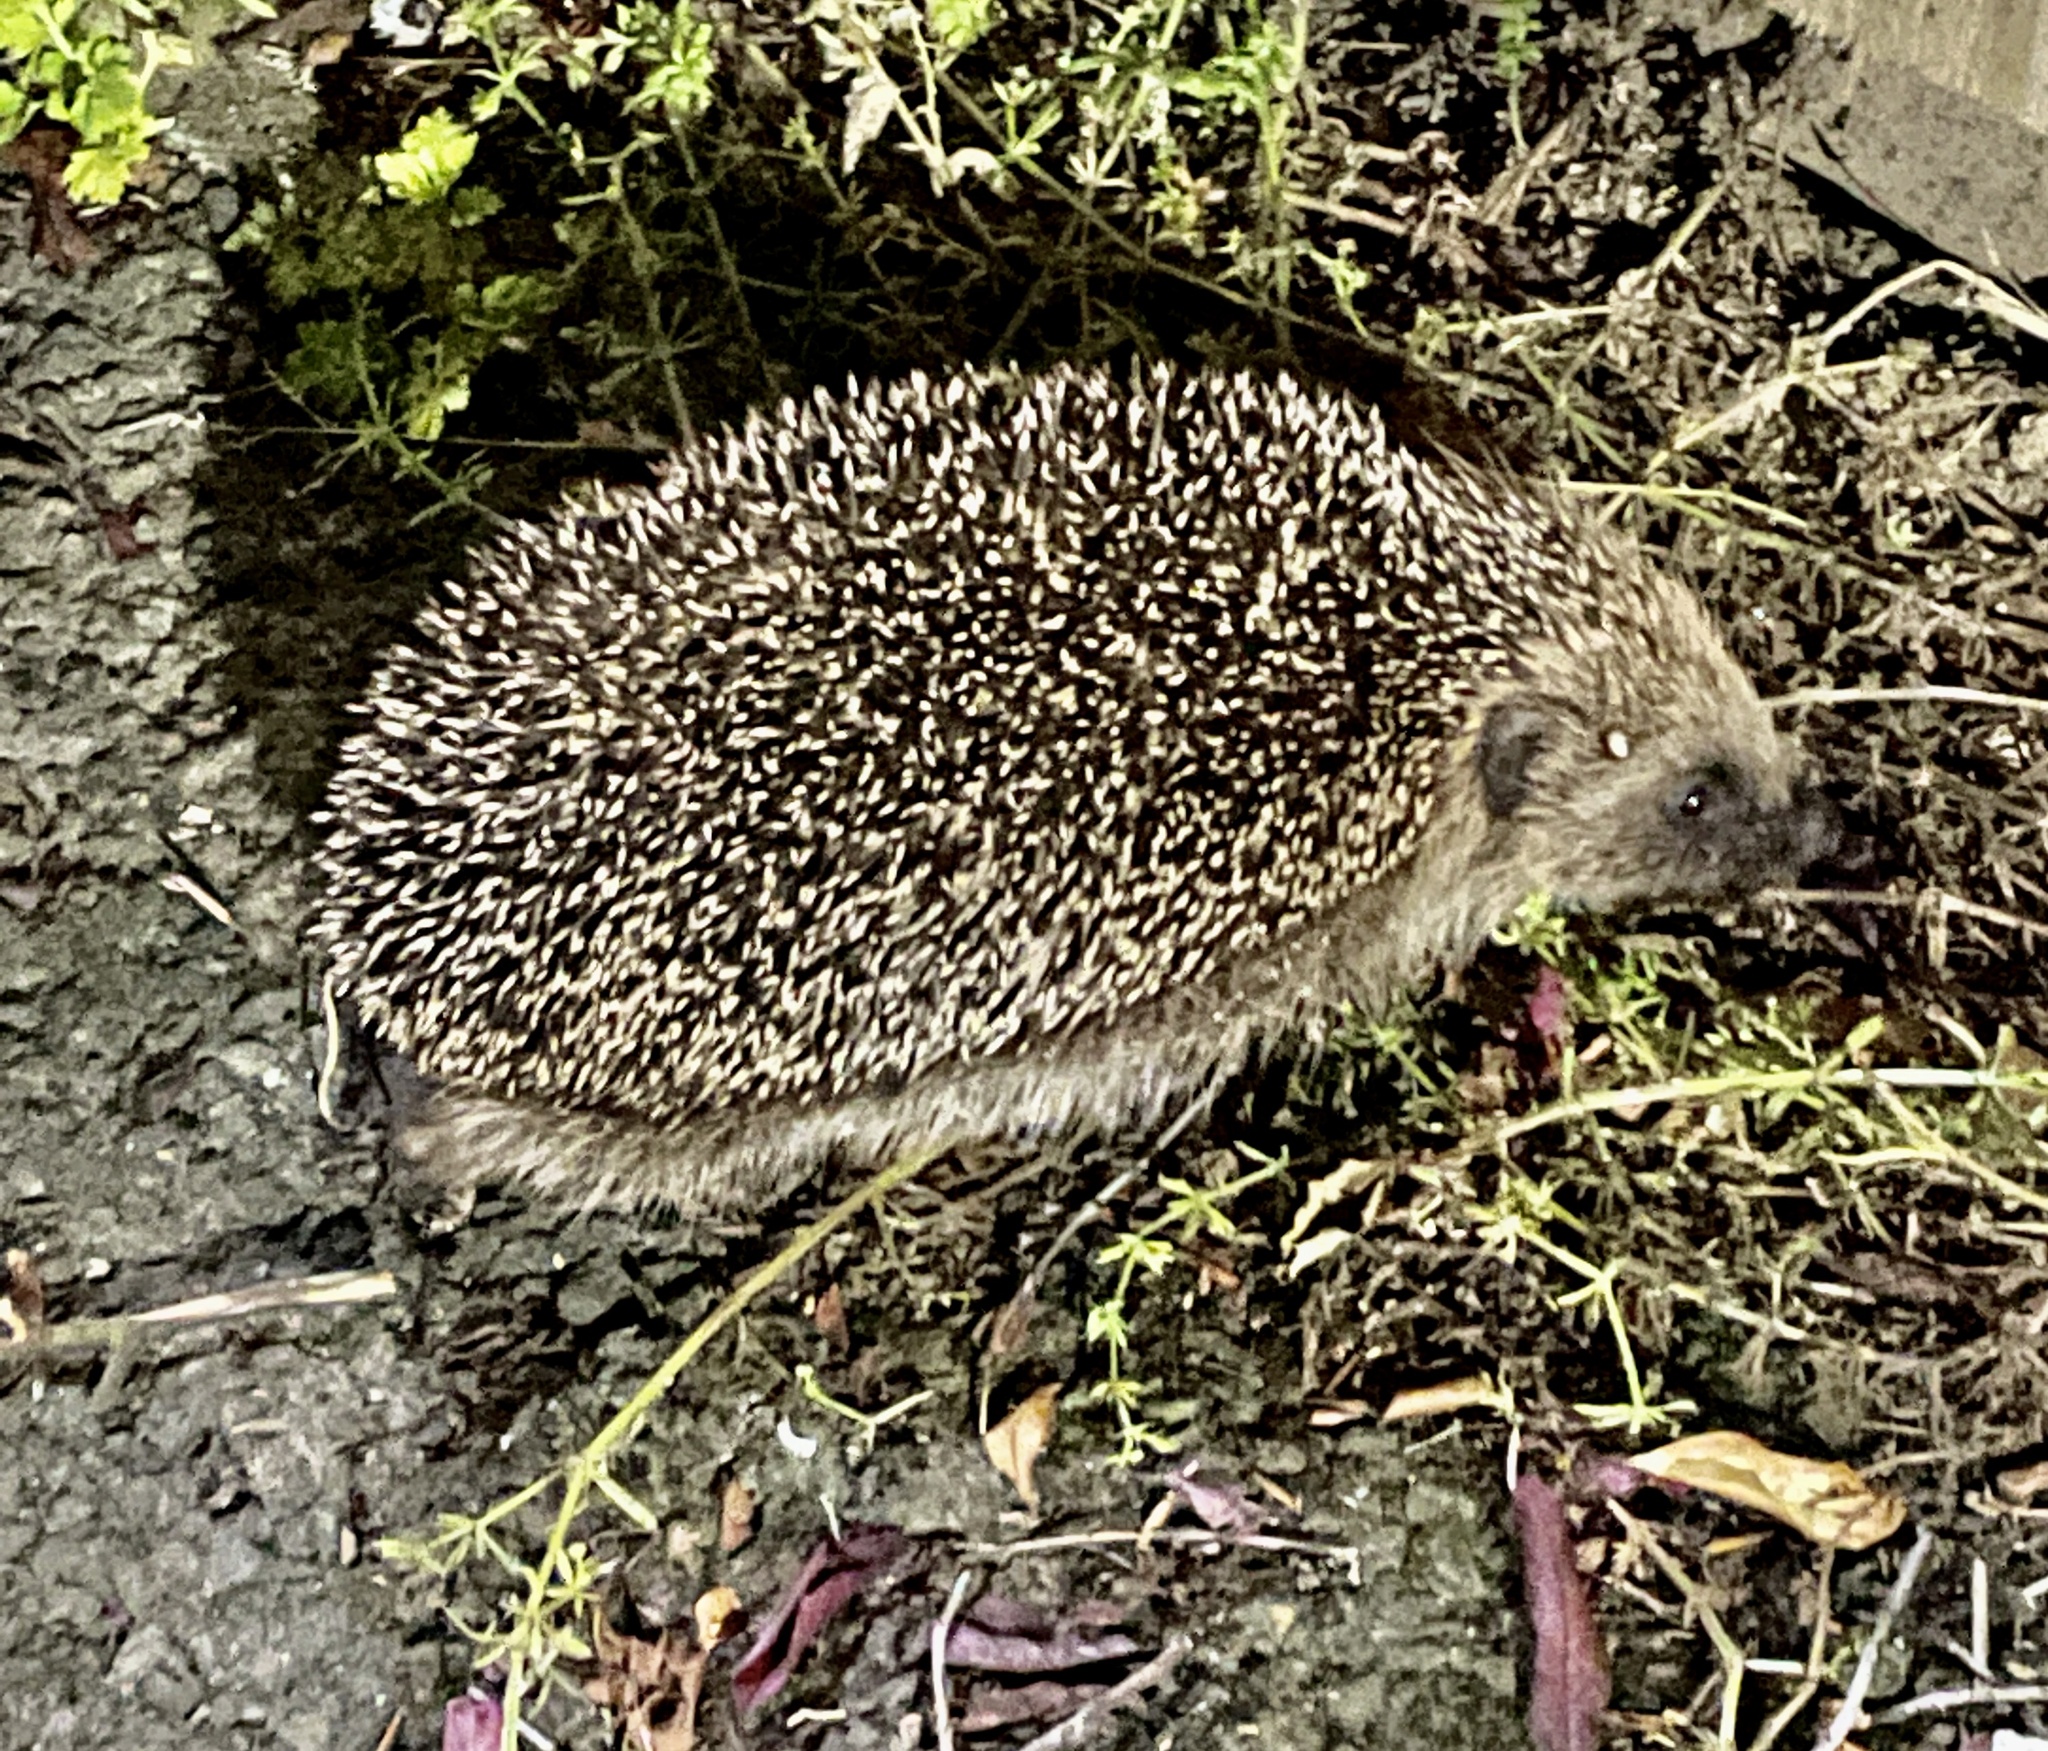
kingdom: Animalia
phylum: Chordata
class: Mammalia
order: Erinaceomorpha
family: Erinaceidae
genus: Erinaceus
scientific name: Erinaceus europaeus
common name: West european hedgehog
